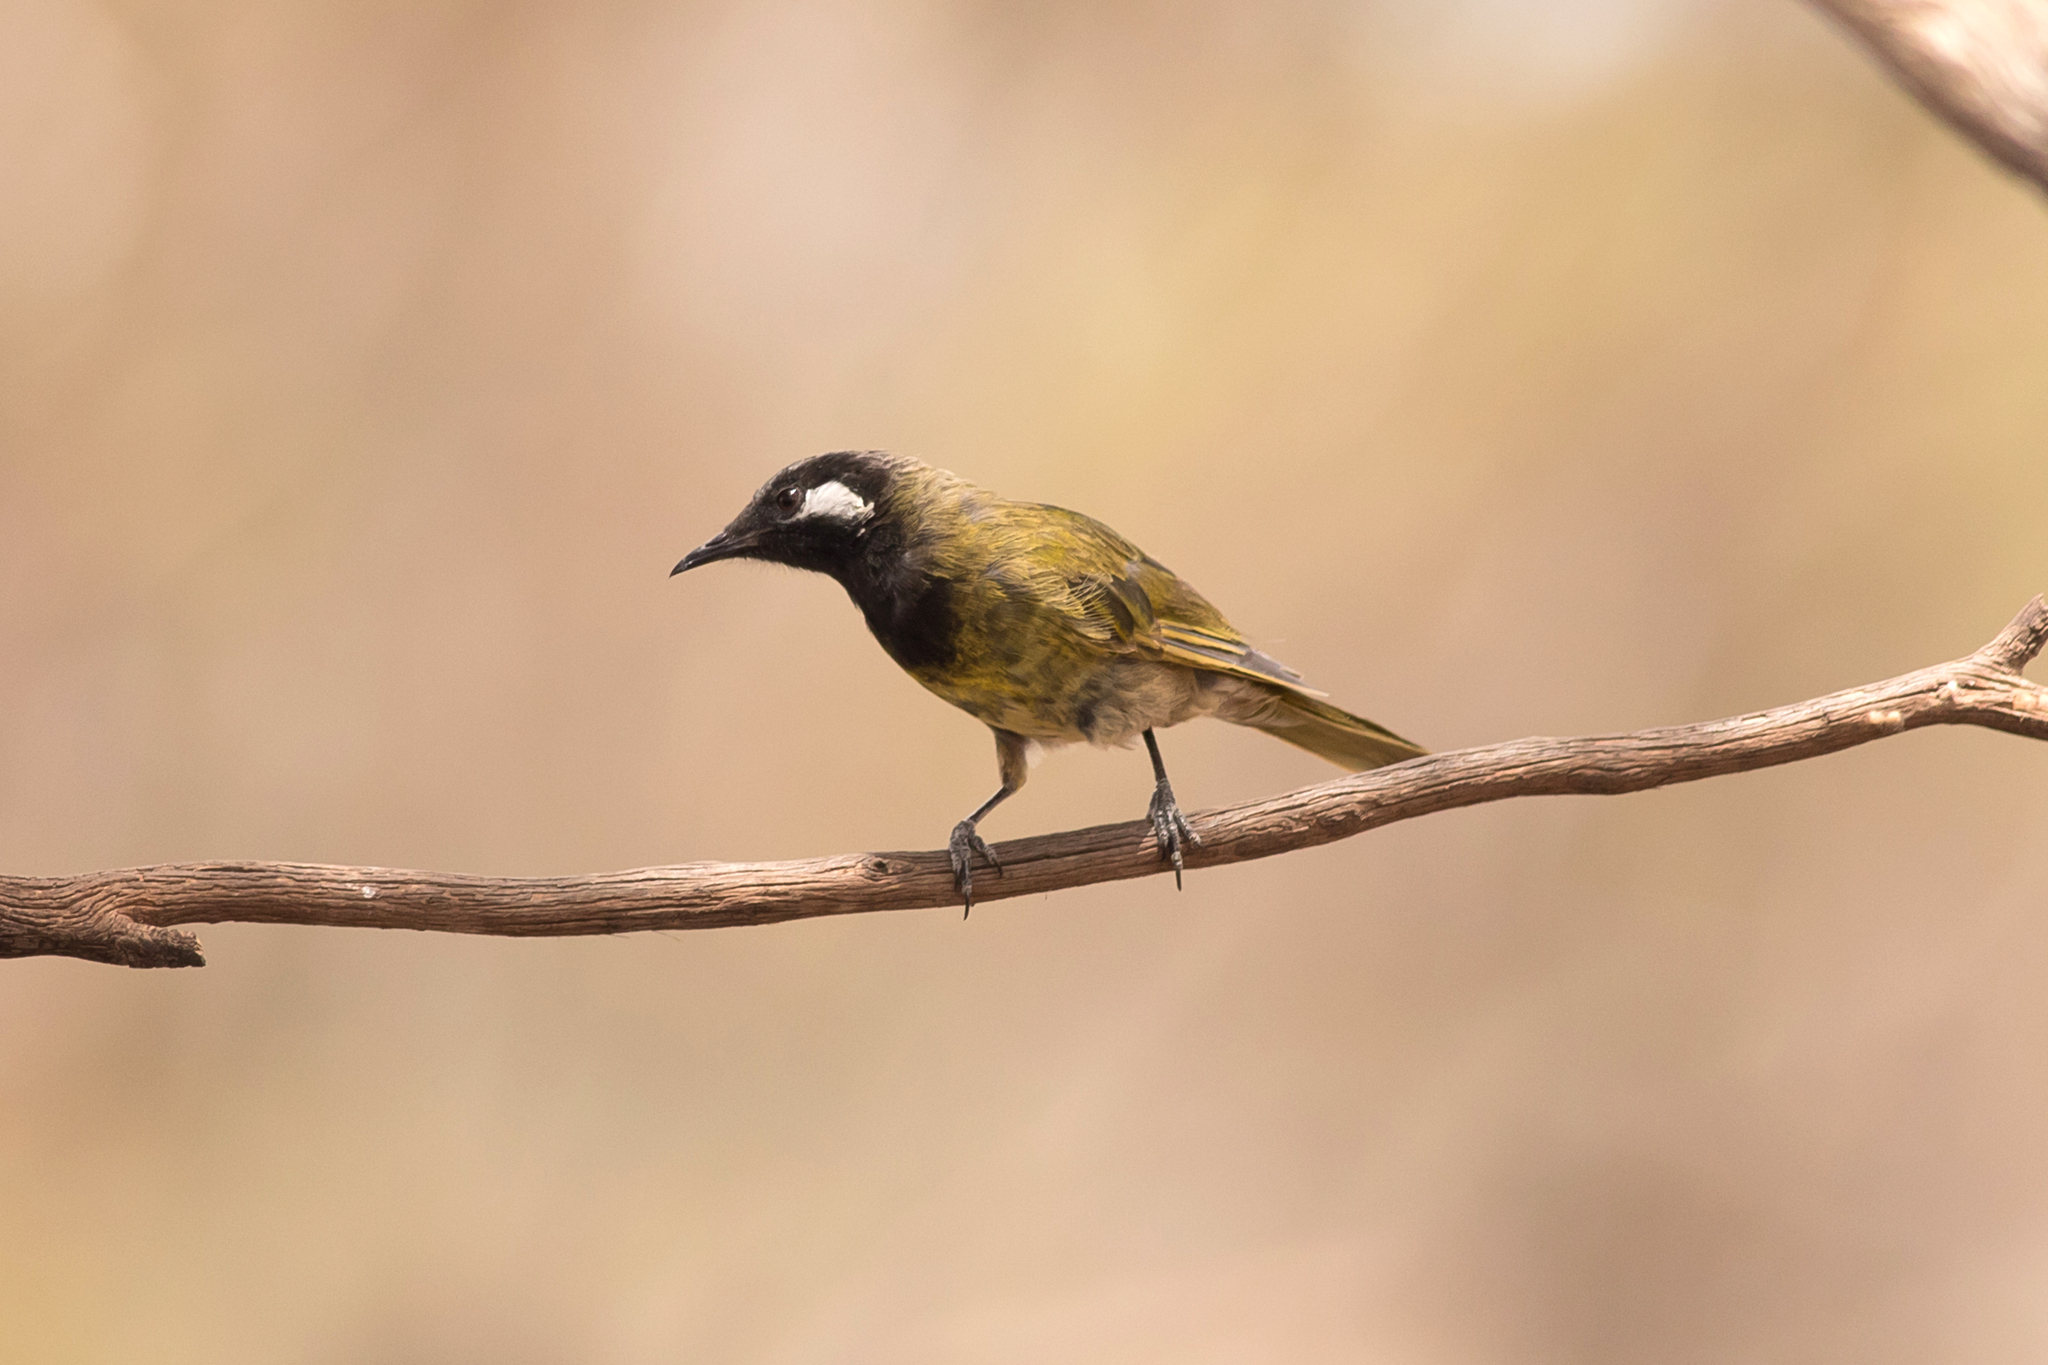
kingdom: Animalia
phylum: Chordata
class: Aves
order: Passeriformes
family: Meliphagidae
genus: Nesoptilotis
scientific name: Nesoptilotis leucotis
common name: White-eared honeyeater
